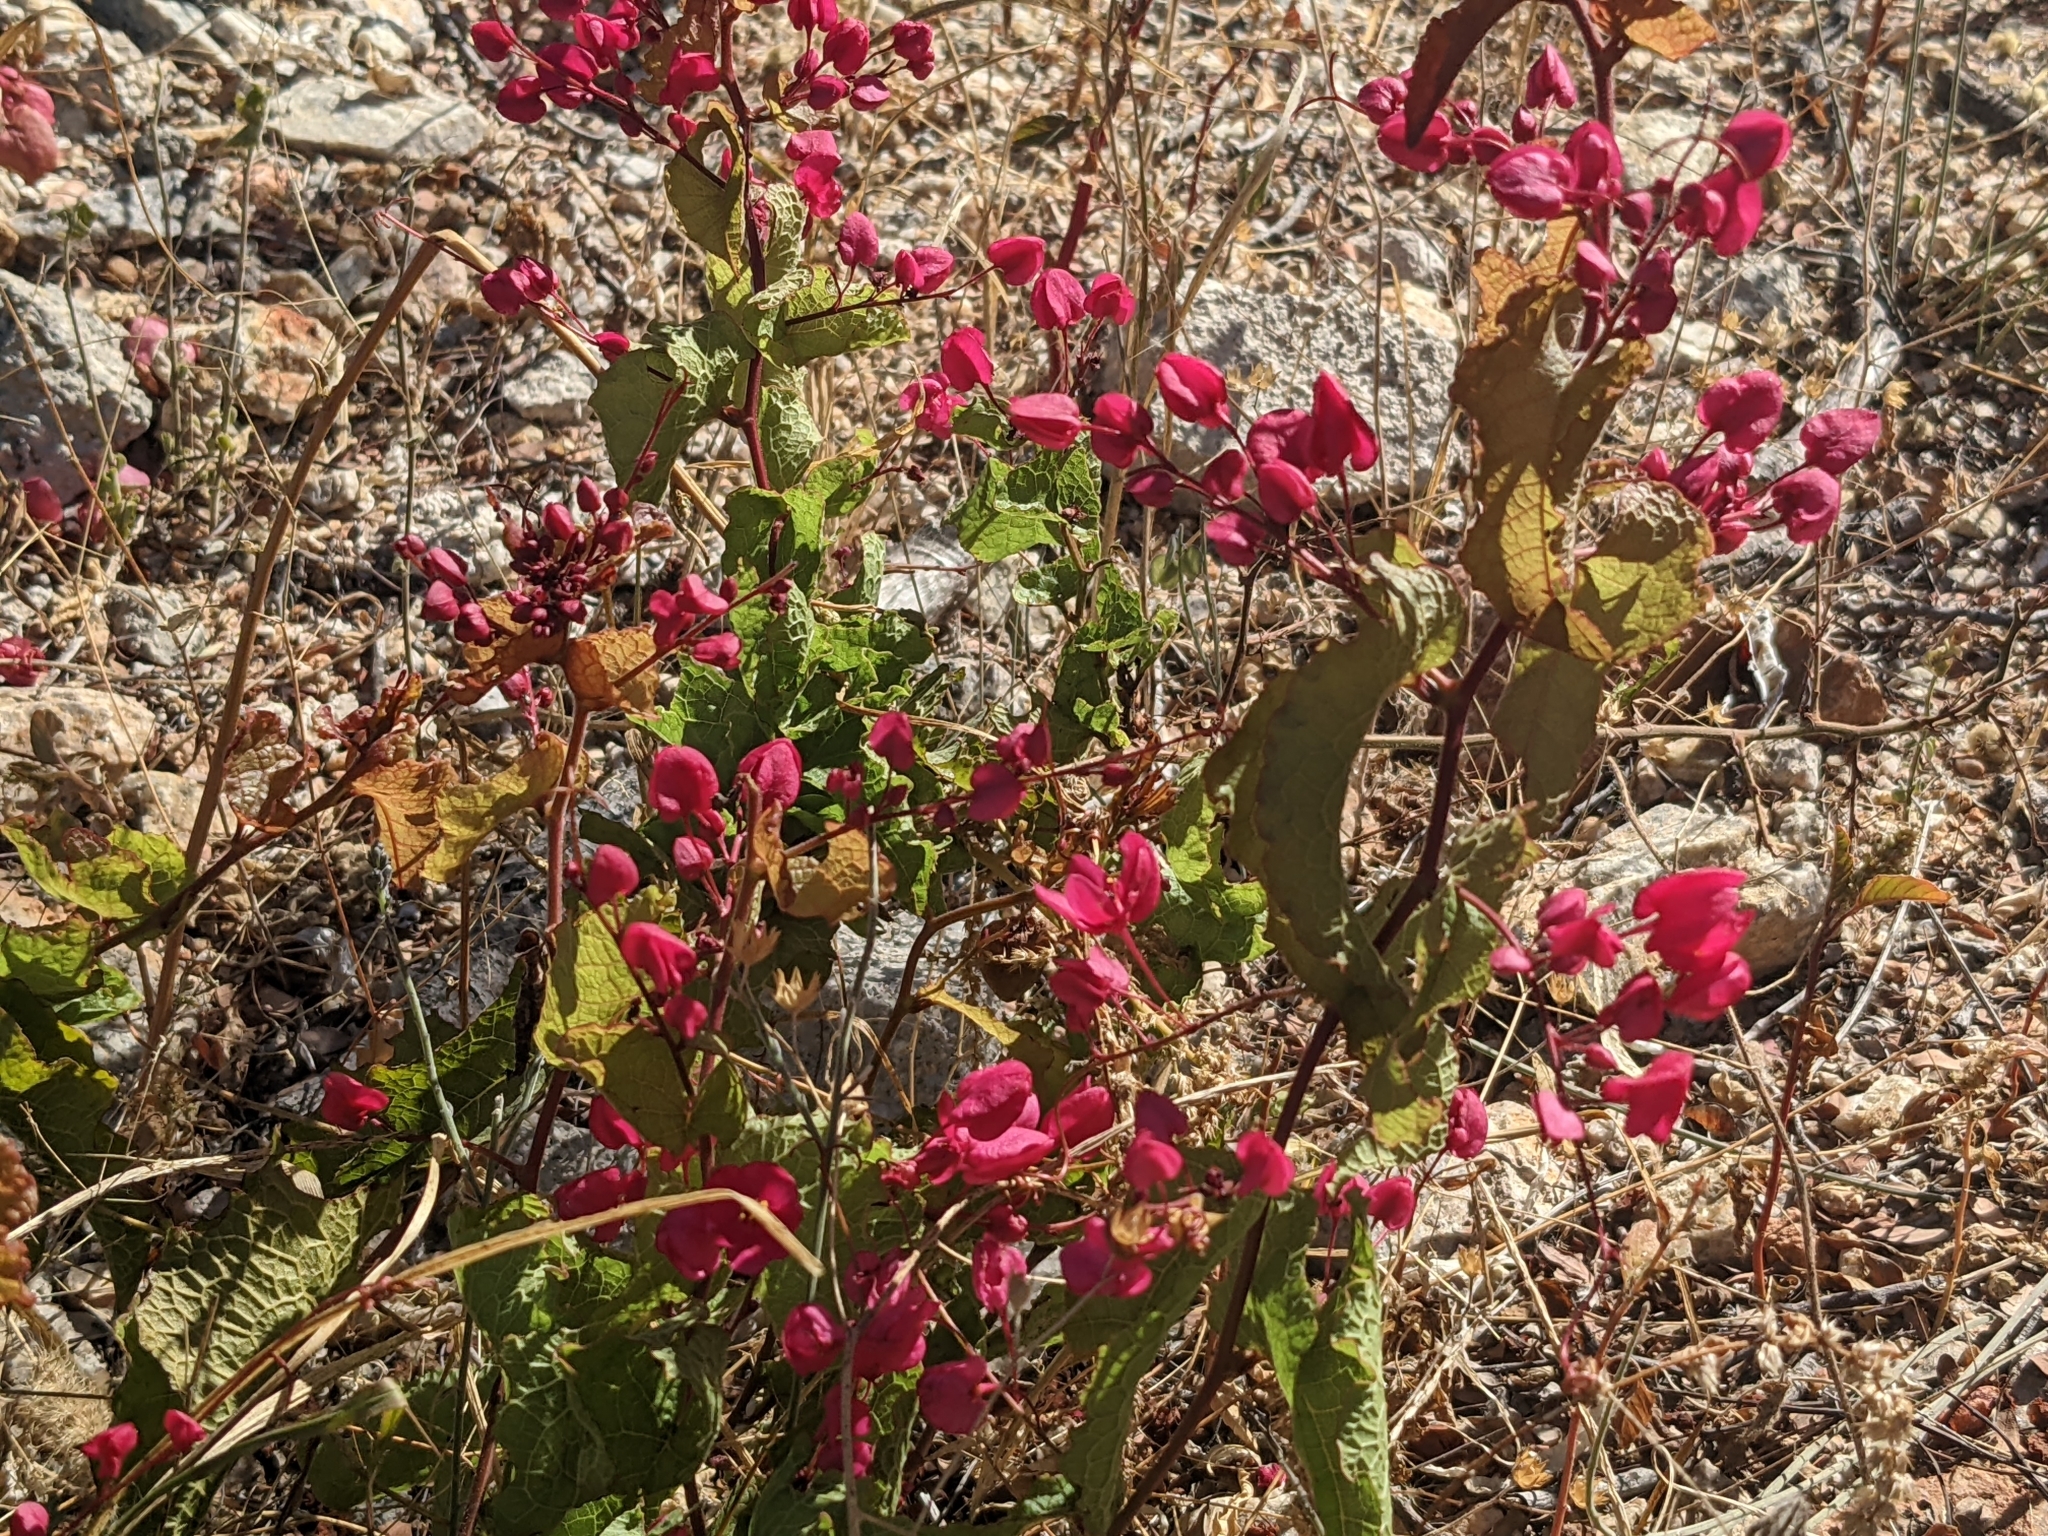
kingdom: Plantae
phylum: Tracheophyta
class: Magnoliopsida
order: Caryophyllales
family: Polygonaceae
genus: Antigonon
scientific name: Antigonon leptopus
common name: Coral vine
